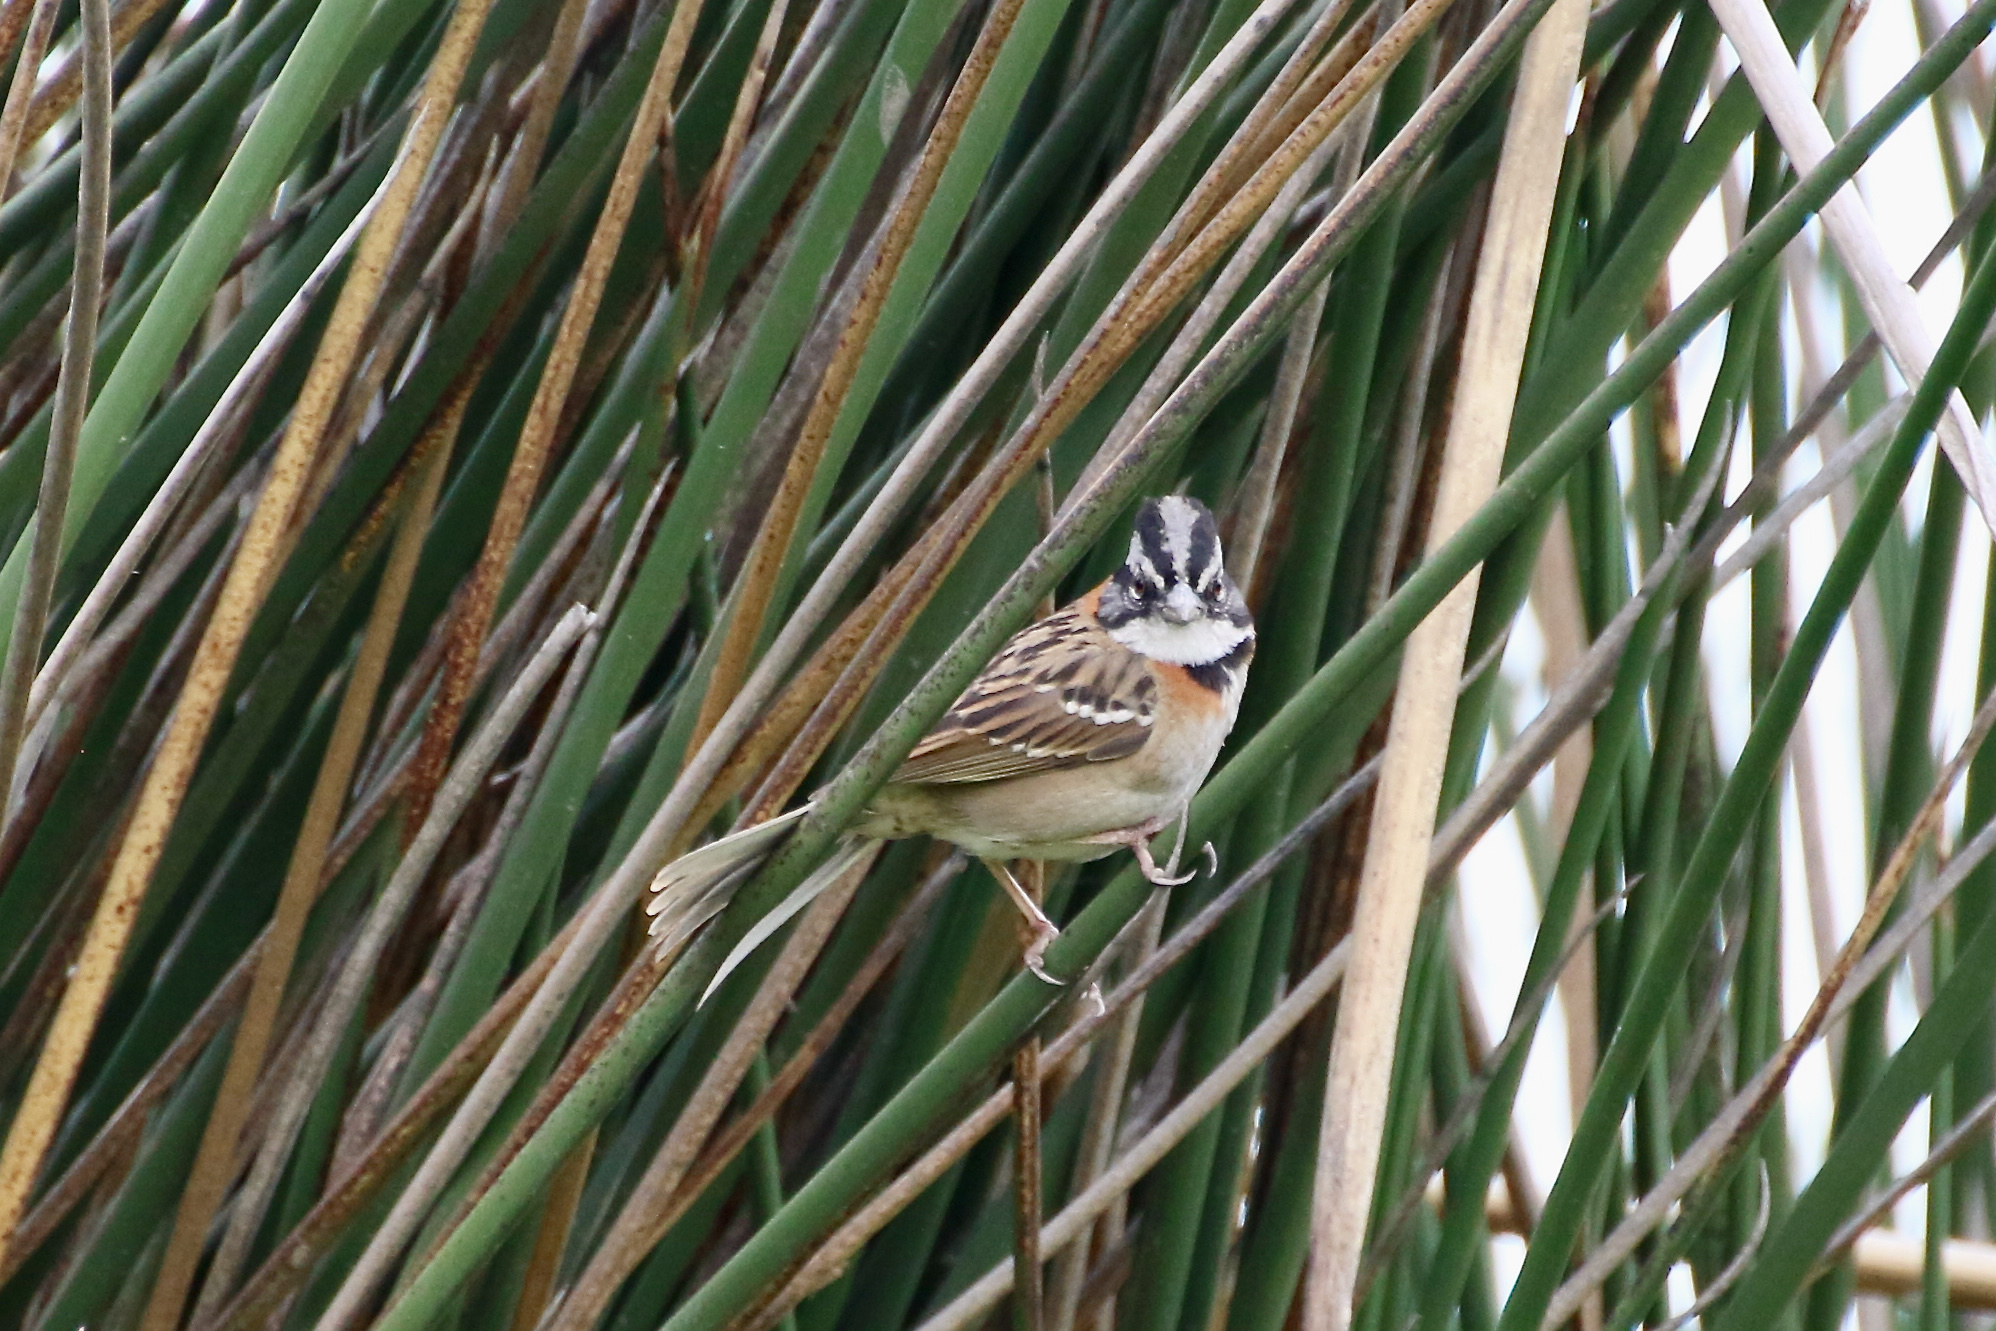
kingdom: Animalia
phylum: Chordata
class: Aves
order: Passeriformes
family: Passerellidae
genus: Zonotrichia
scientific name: Zonotrichia capensis
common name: Rufous-collared sparrow
